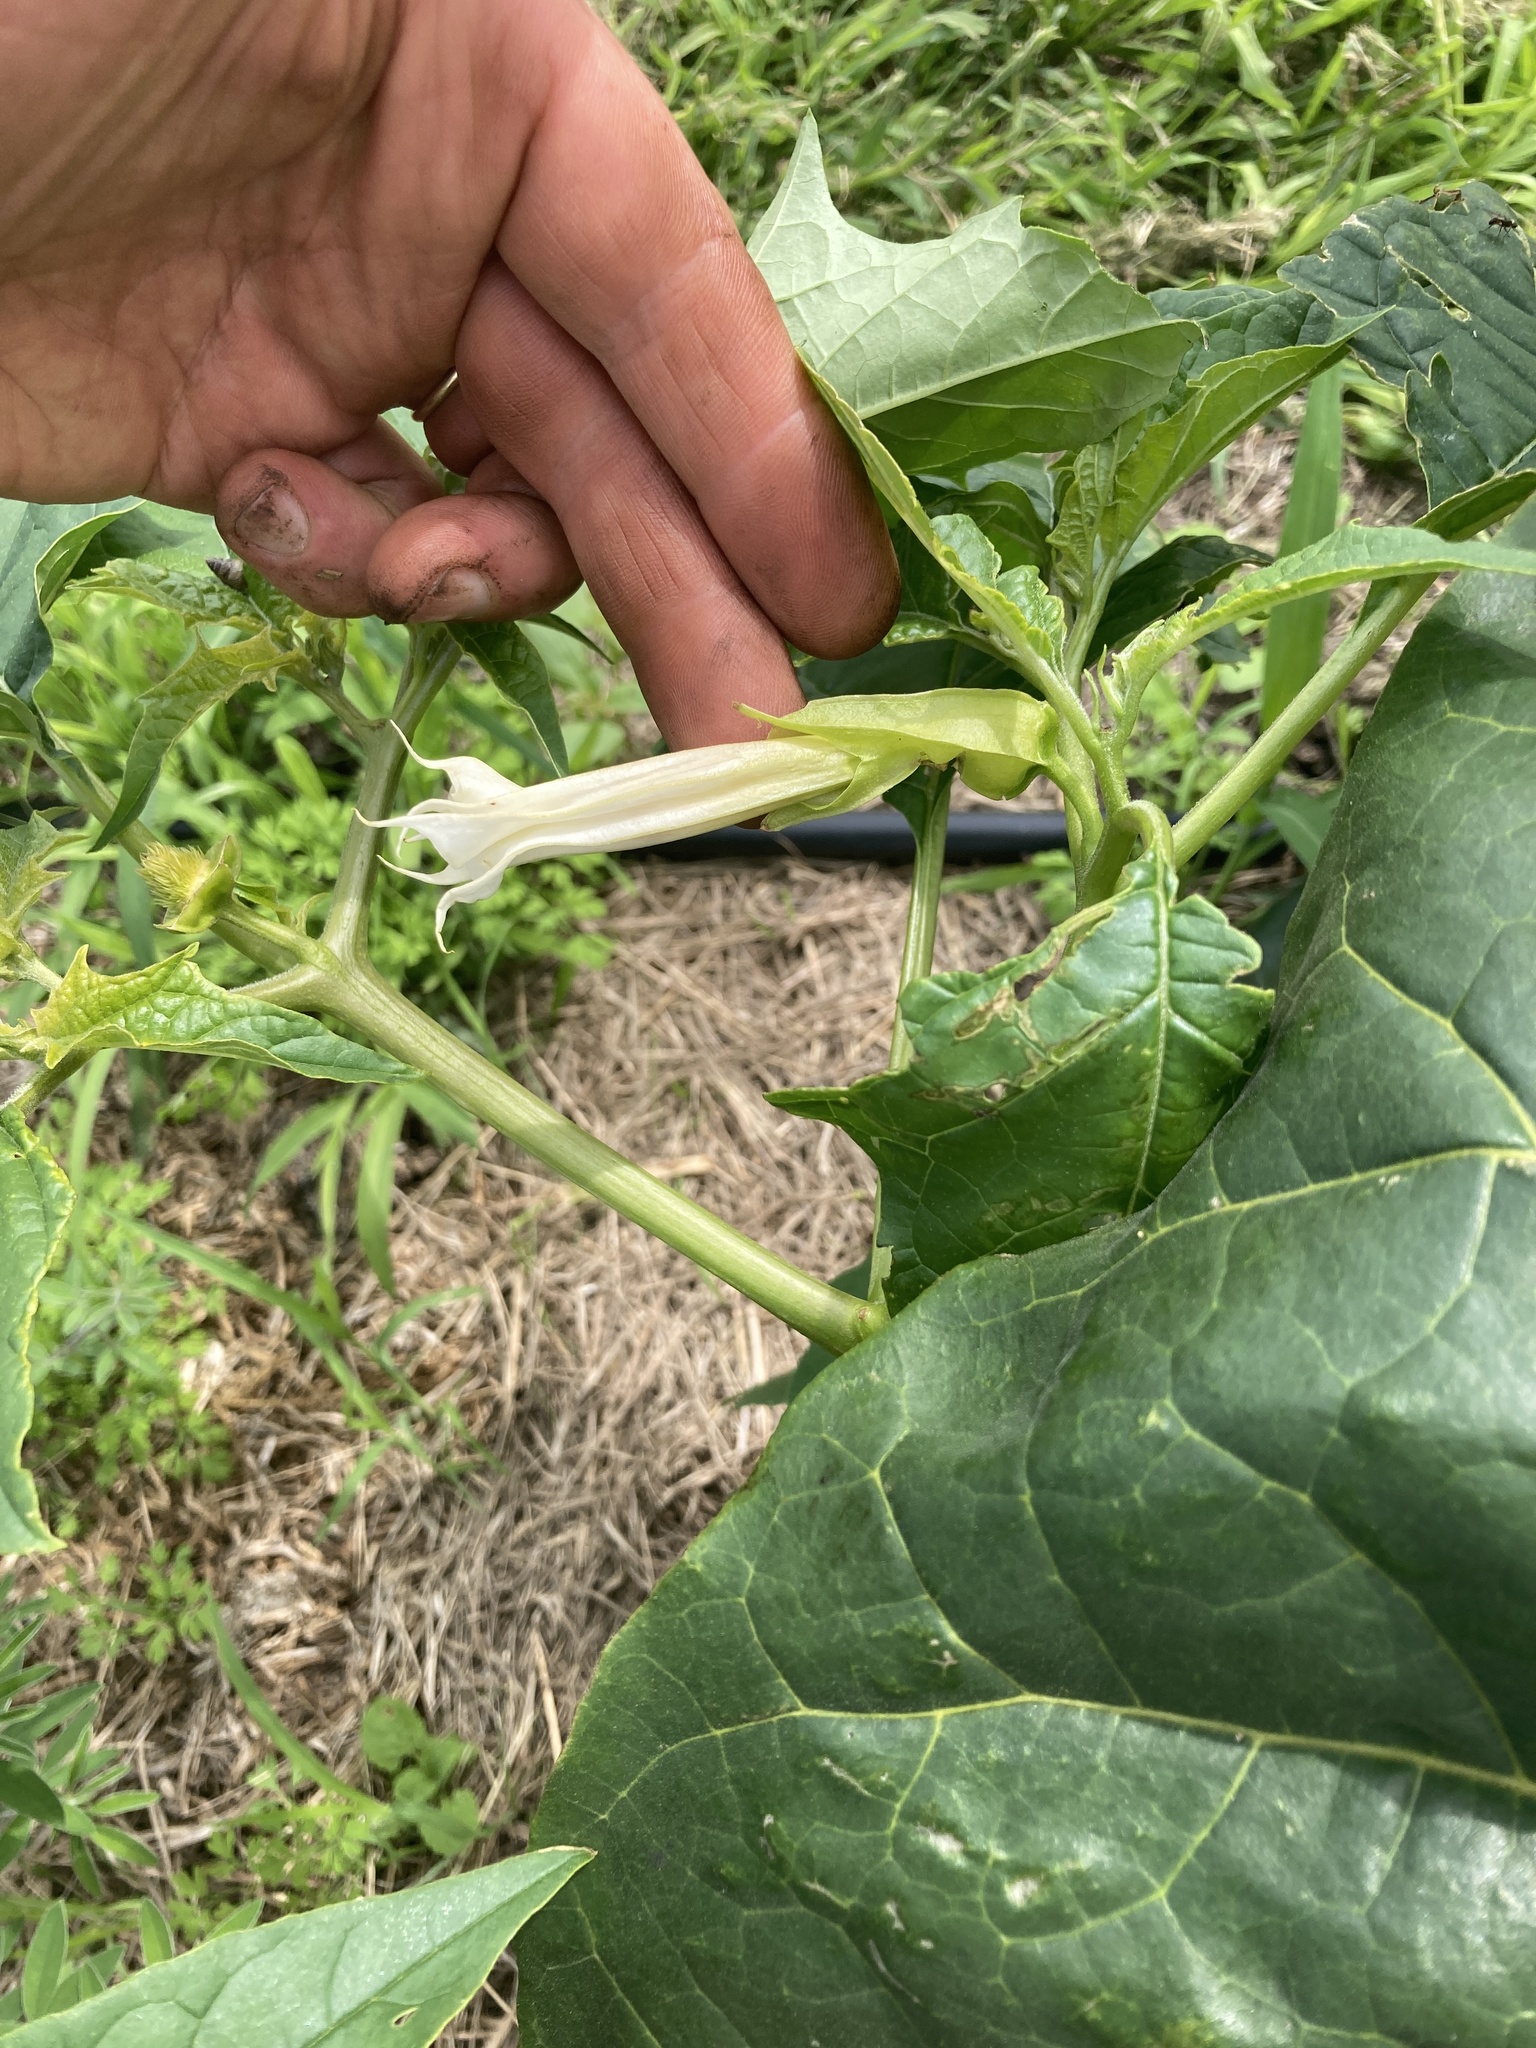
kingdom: Plantae
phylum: Tracheophyta
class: Magnoliopsida
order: Solanales
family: Solanaceae
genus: Datura
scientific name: Datura stramonium
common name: Thorn-apple
